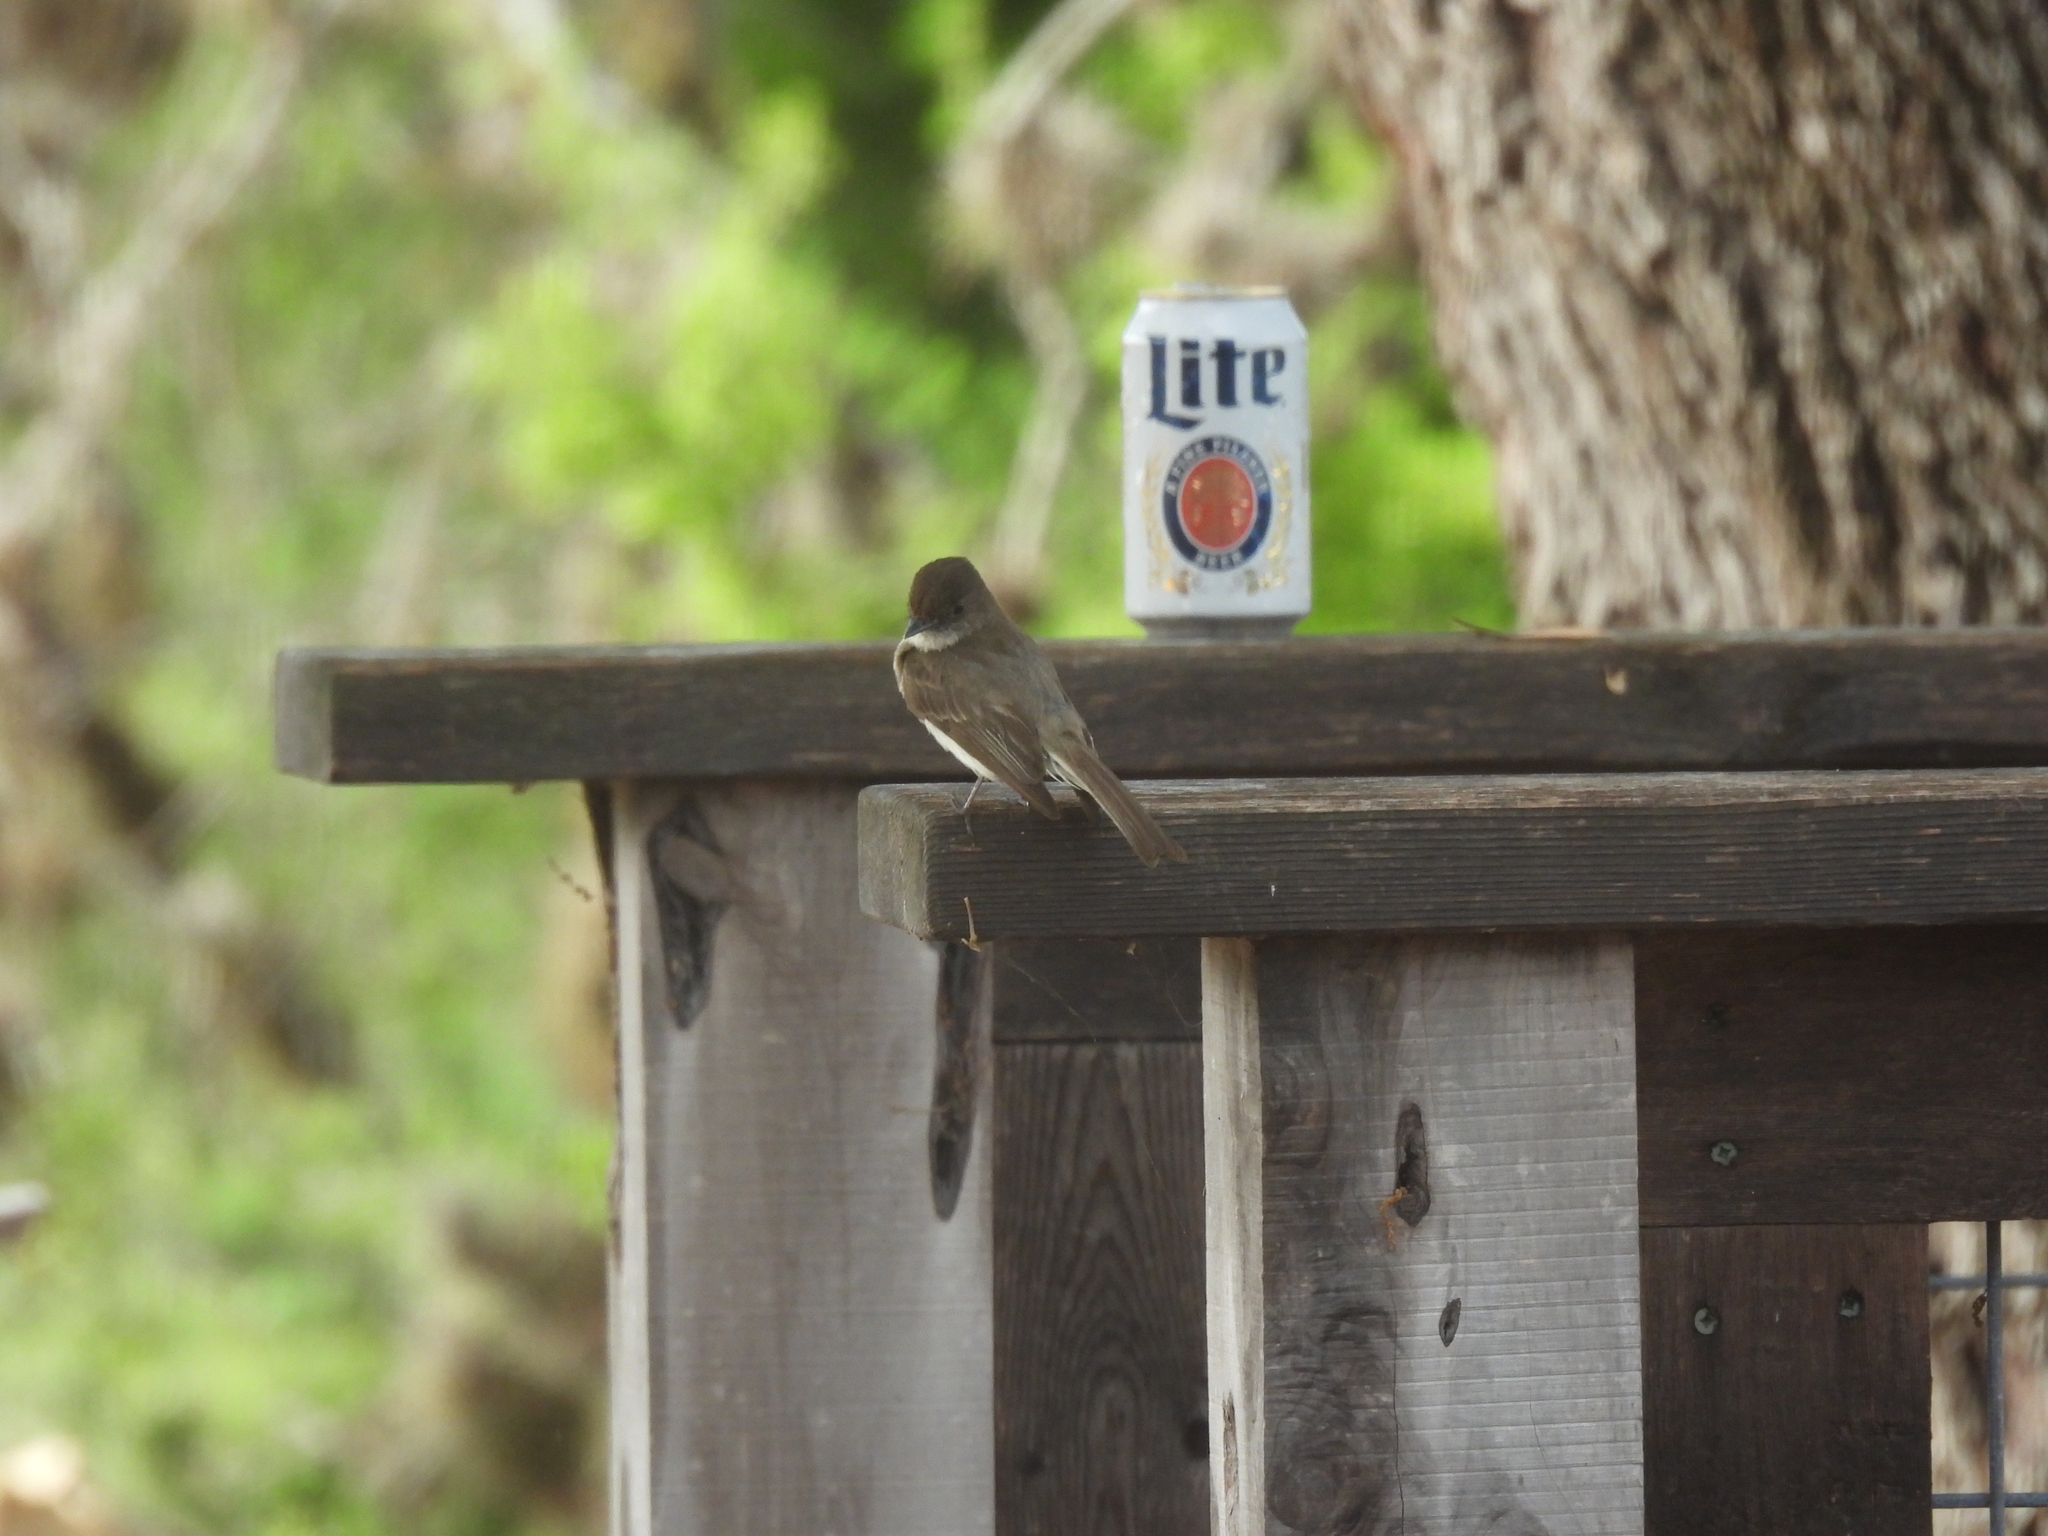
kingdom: Animalia
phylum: Chordata
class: Aves
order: Passeriformes
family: Tyrannidae
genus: Sayornis
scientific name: Sayornis phoebe
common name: Eastern phoebe
